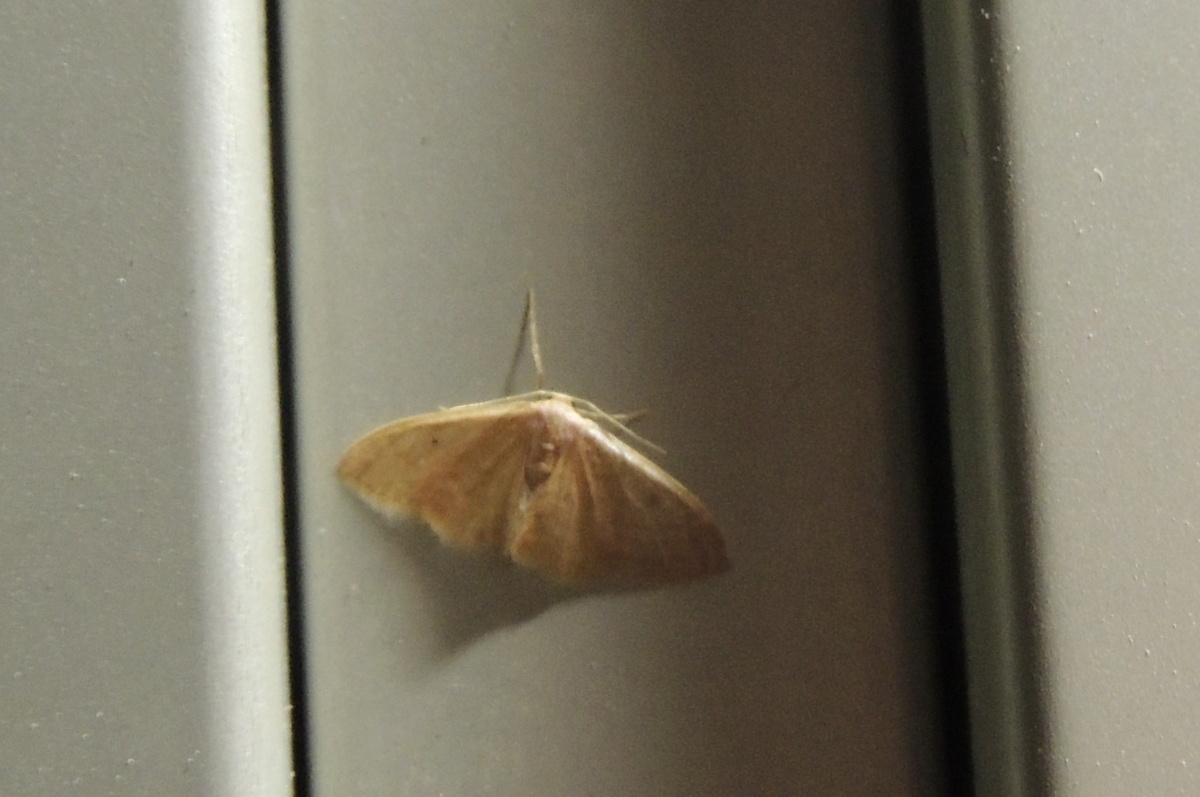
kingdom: Animalia
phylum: Arthropoda
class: Insecta
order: Lepidoptera
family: Geometridae
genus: Idaea
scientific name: Idaea distinctaria
